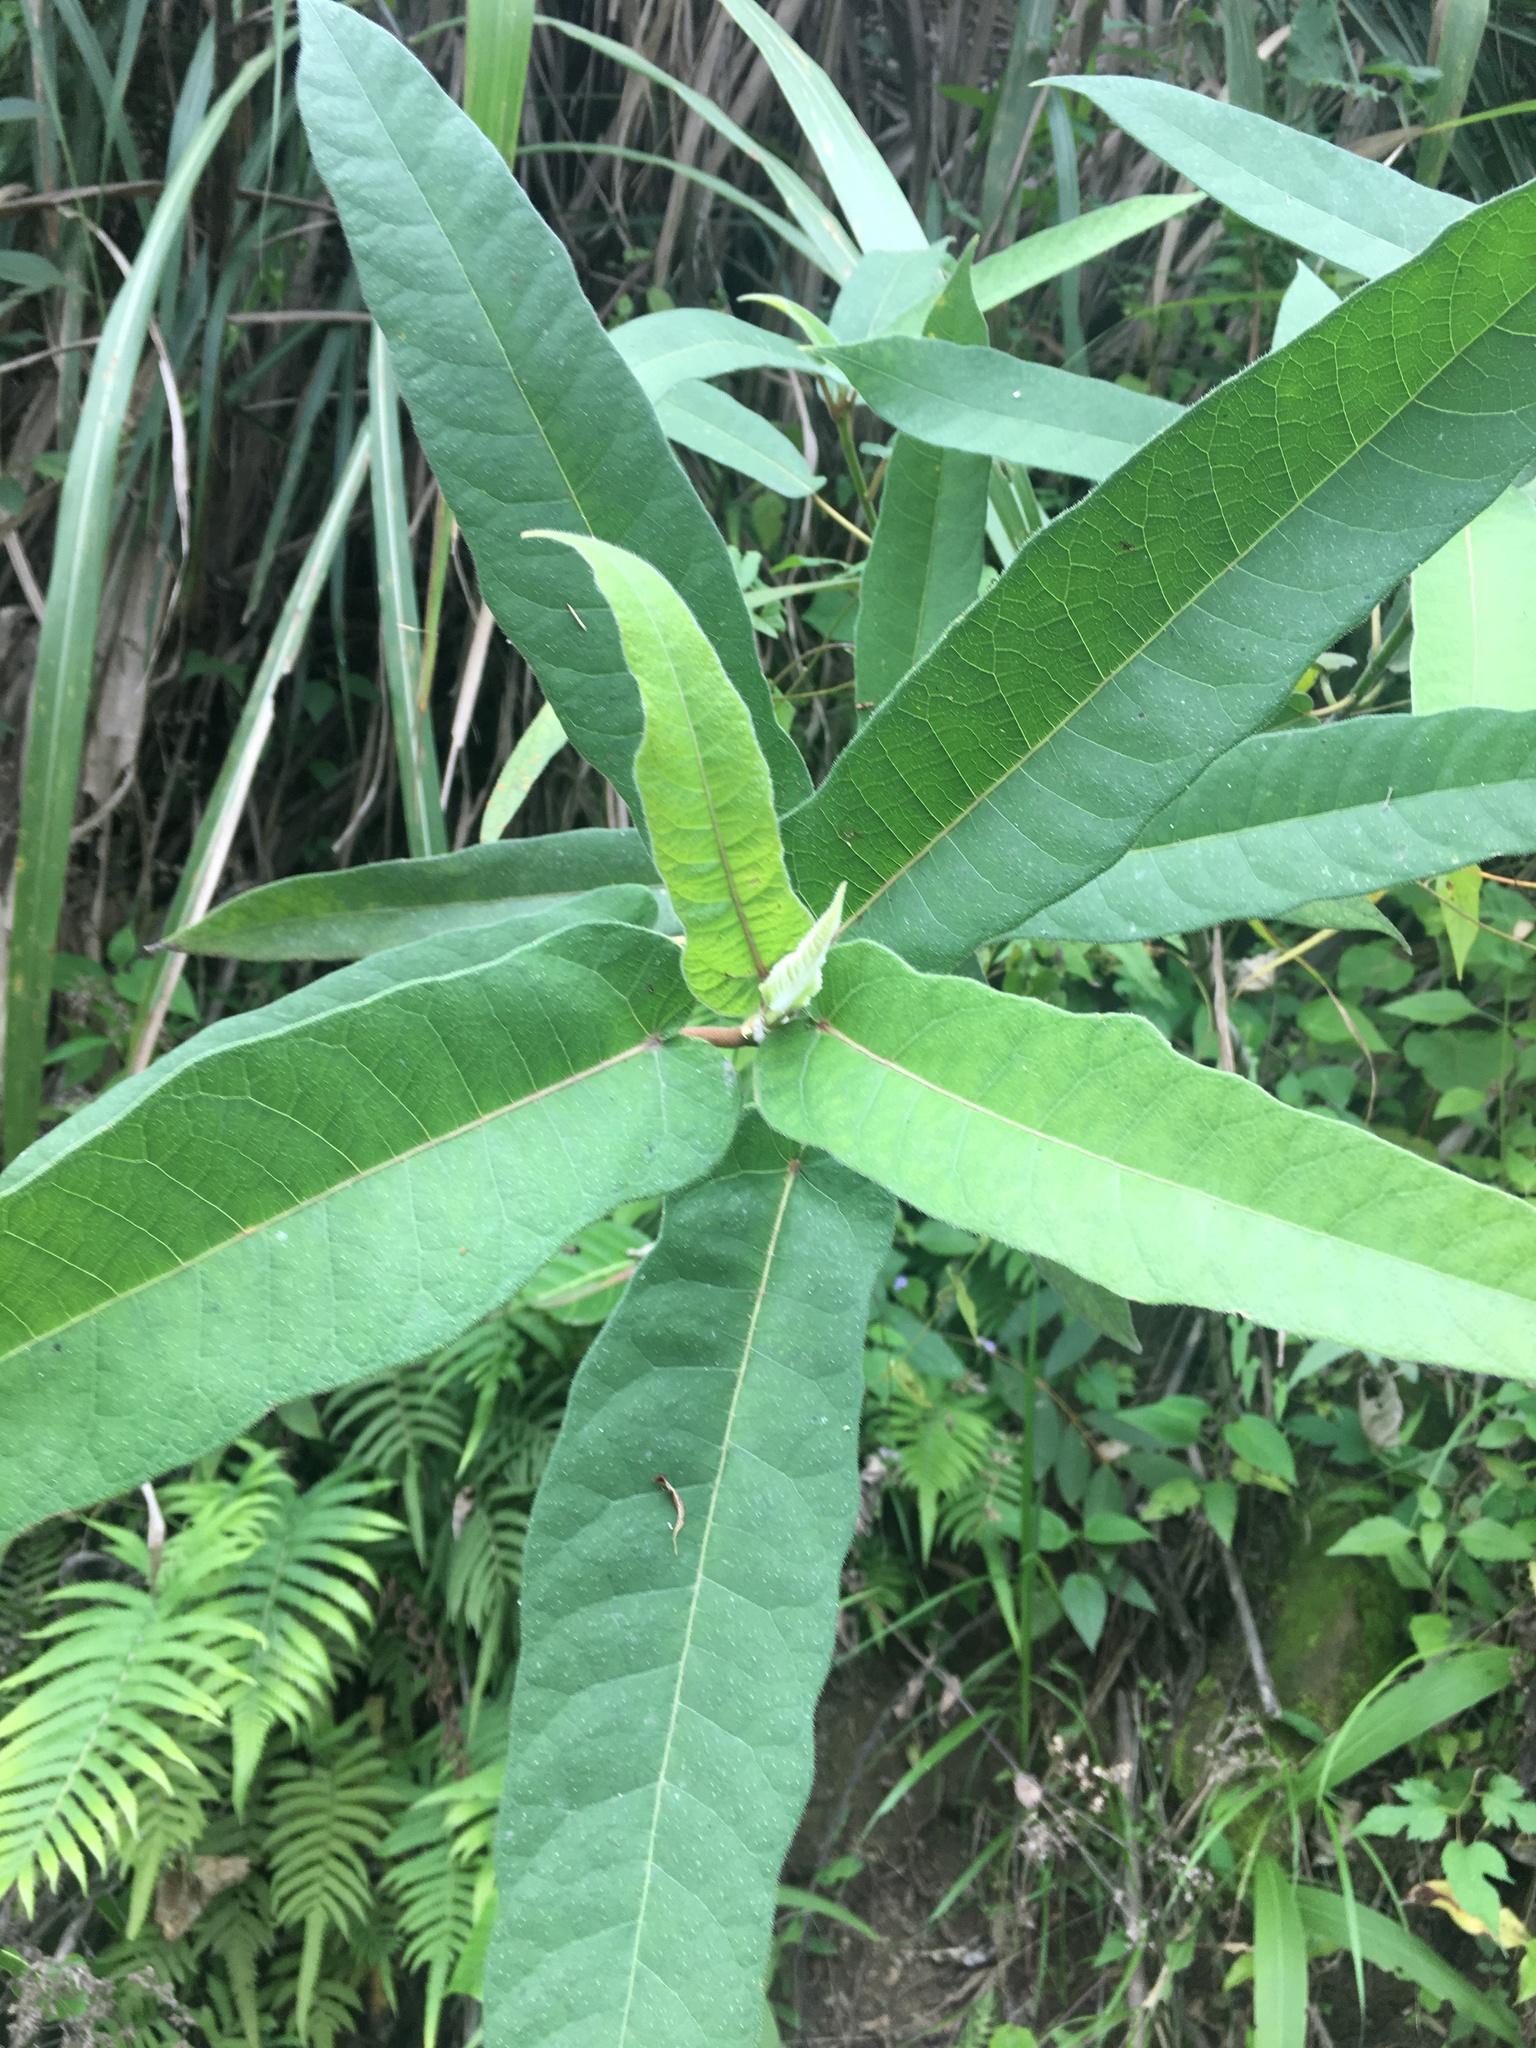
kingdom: Plantae
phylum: Tracheophyta
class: Magnoliopsida
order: Rosales
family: Moraceae
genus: Ficus
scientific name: Ficus erecta
